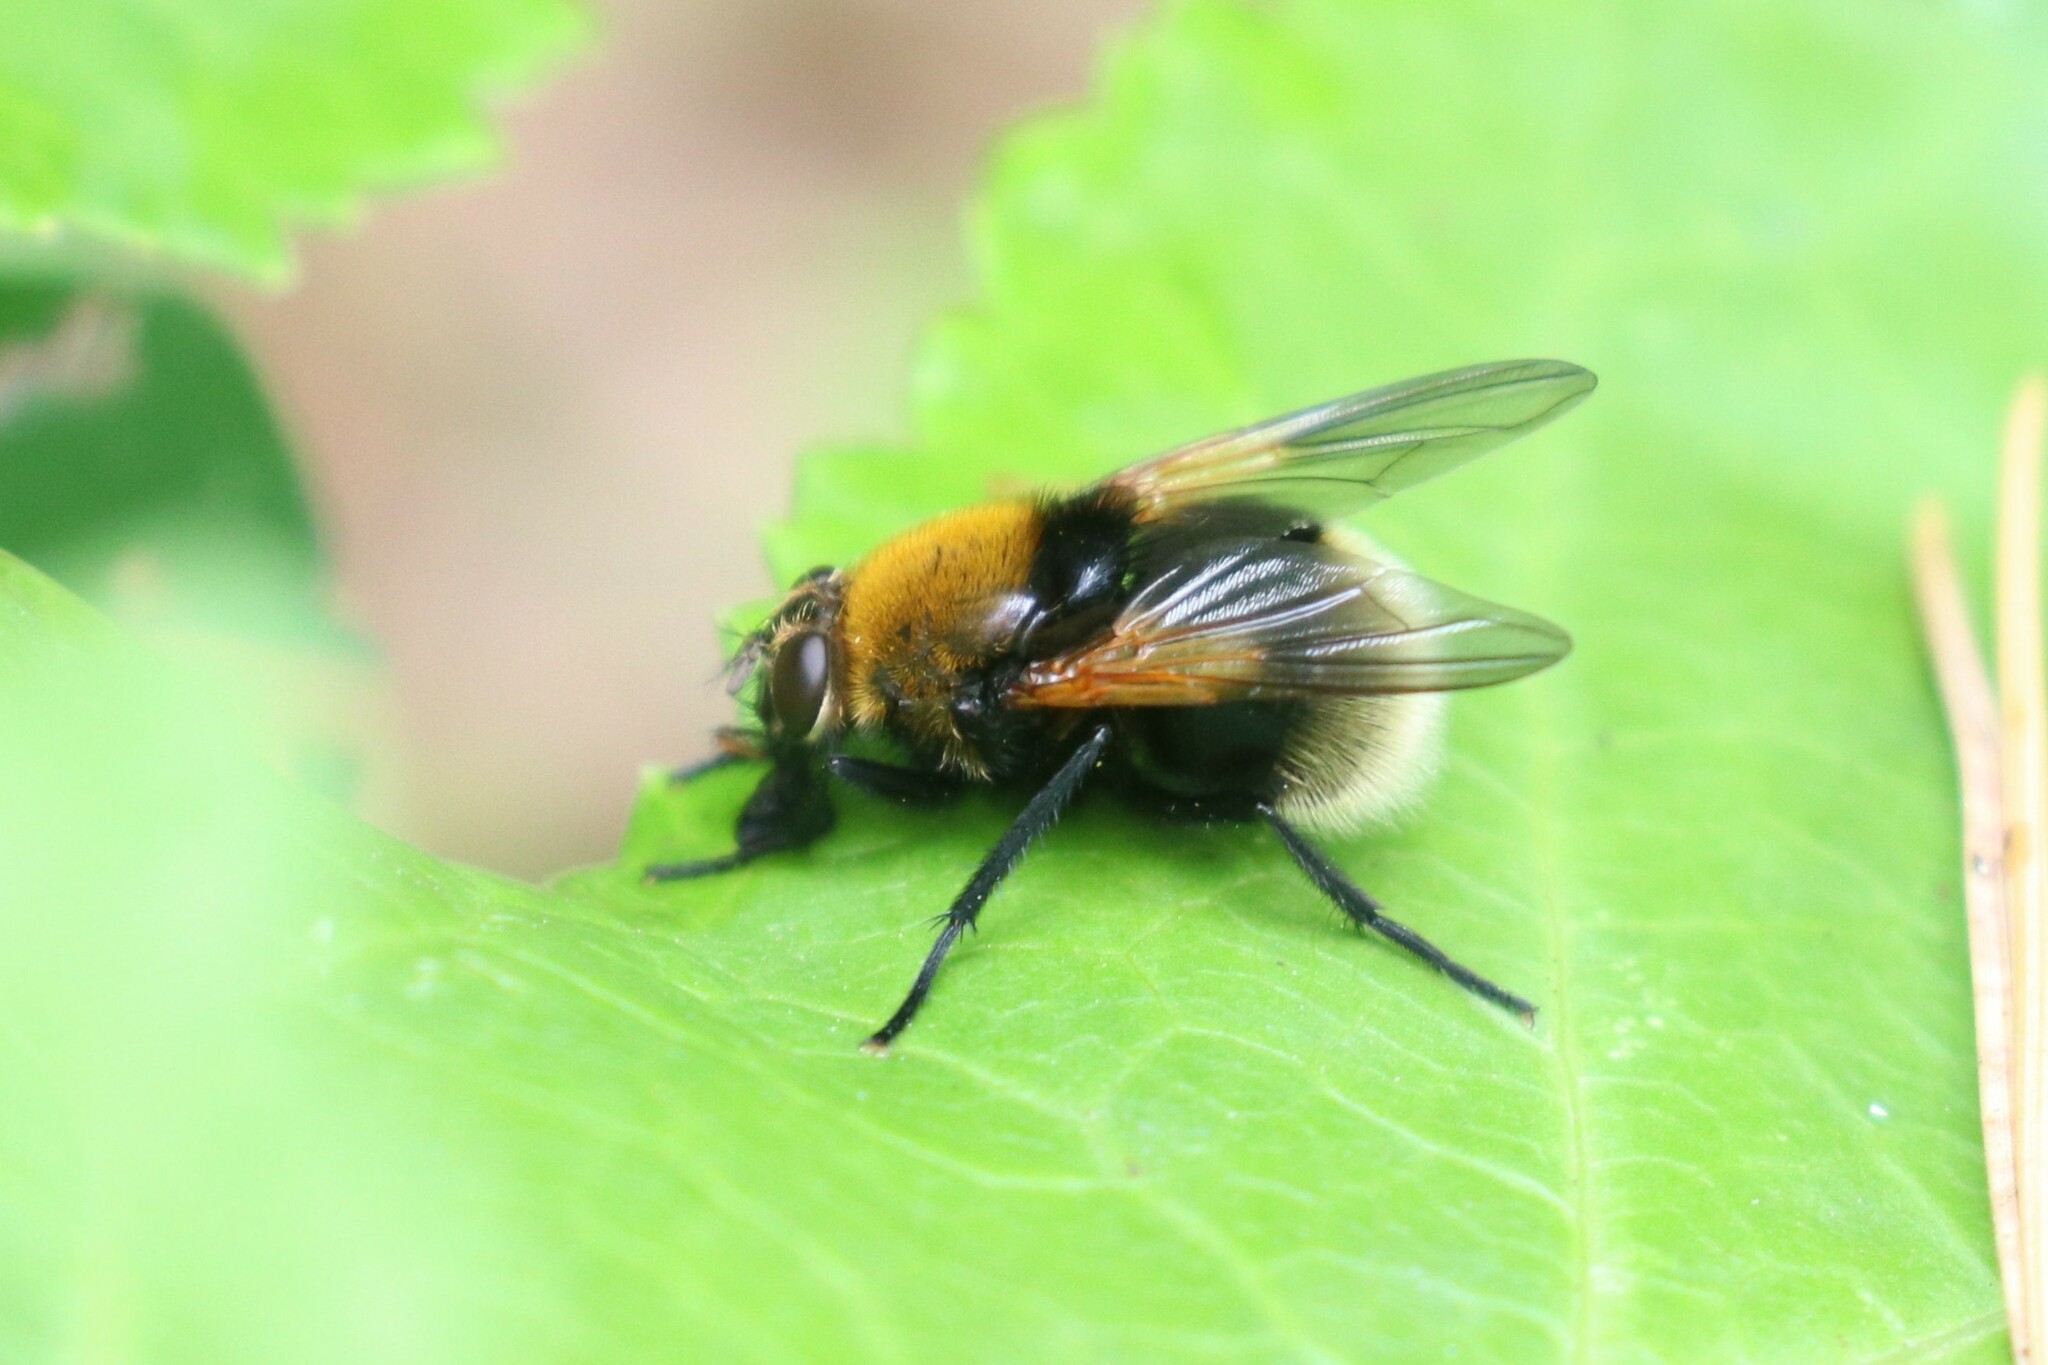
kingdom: Animalia
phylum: Arthropoda
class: Insecta
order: Diptera
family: Muscidae
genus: Mesembrina
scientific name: Mesembrina mystacea
